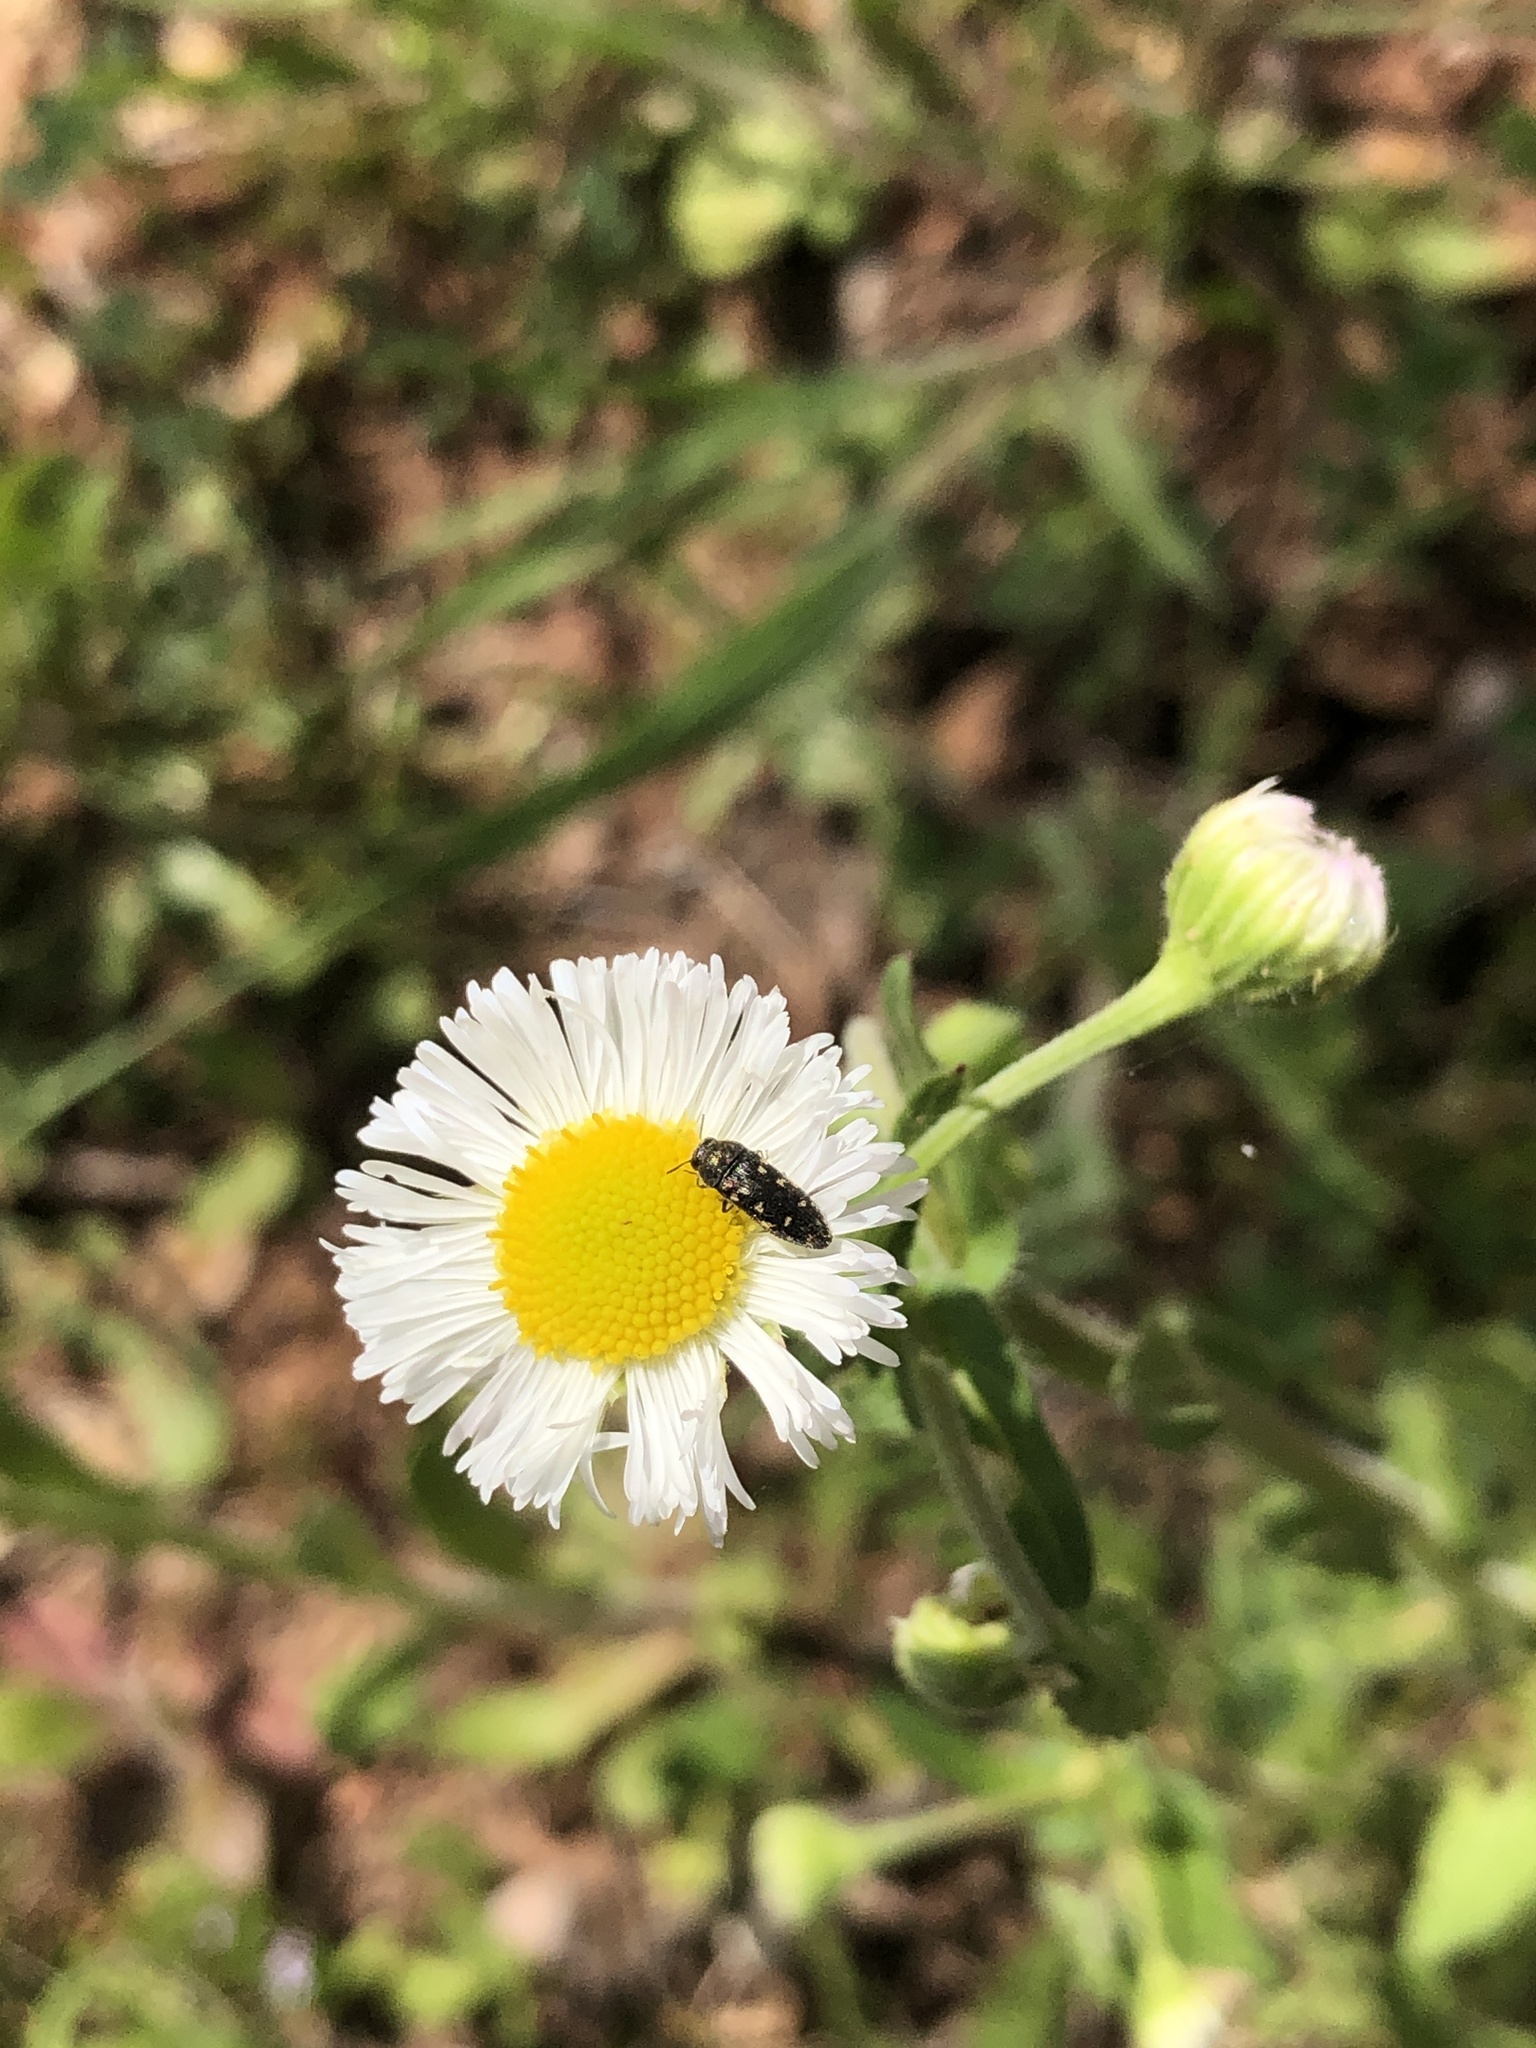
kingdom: Animalia
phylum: Arthropoda
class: Insecta
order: Coleoptera
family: Buprestidae
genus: Acmaeodera
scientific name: Acmaeodera tubulus
